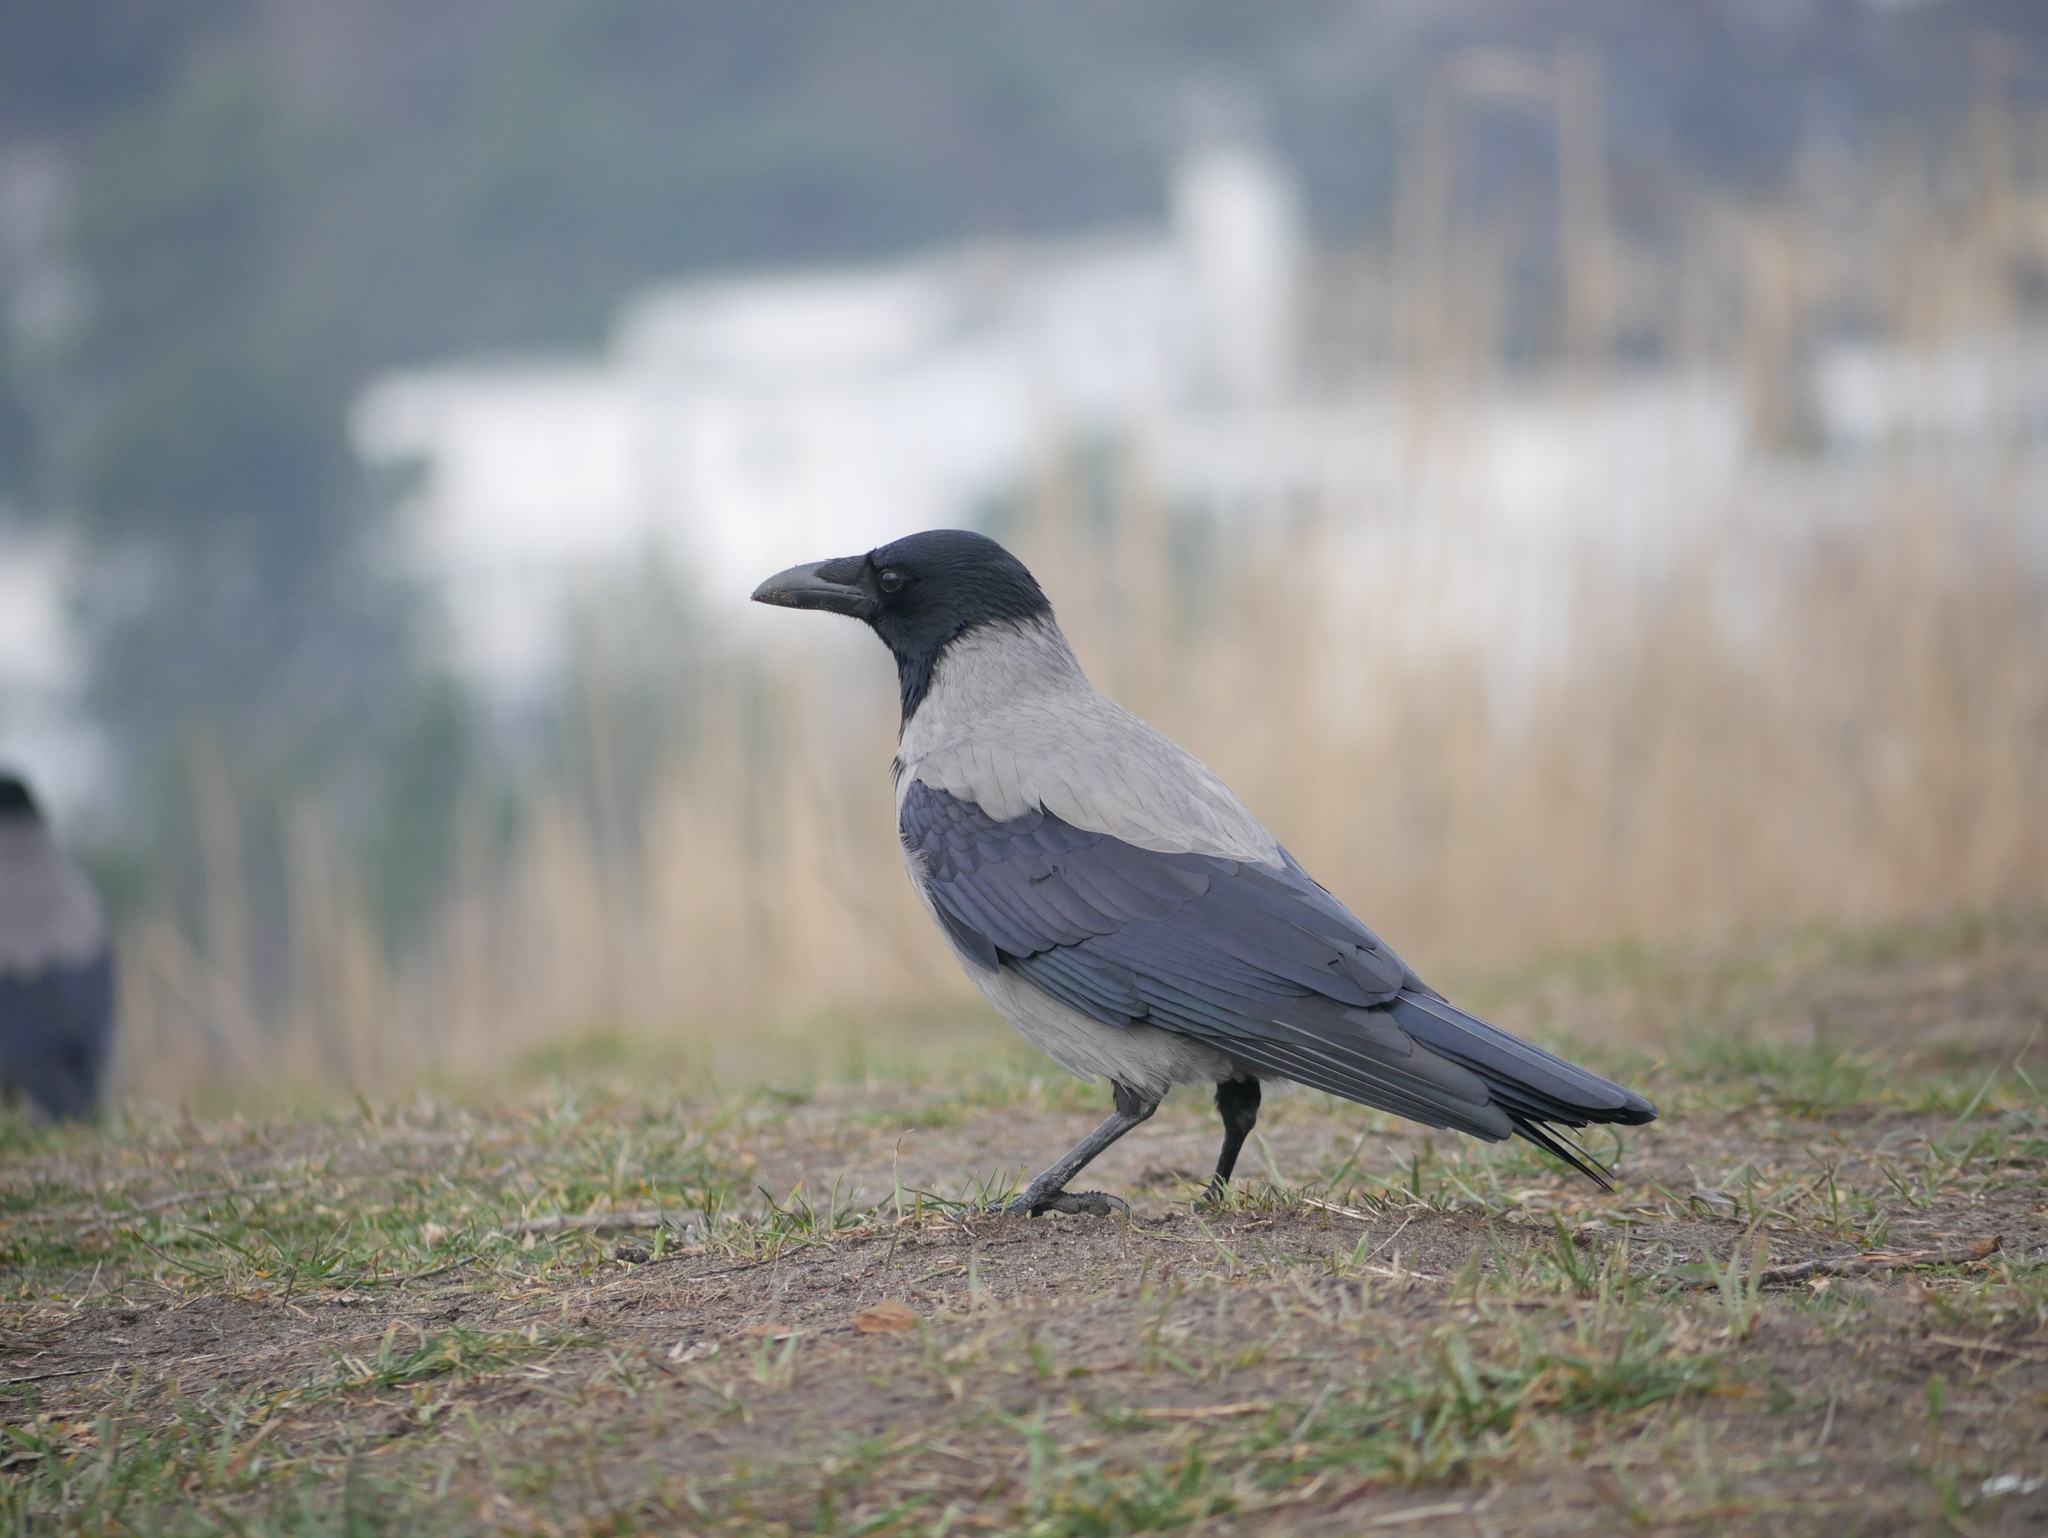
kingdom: Animalia
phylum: Chordata
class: Aves
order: Passeriformes
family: Corvidae
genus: Corvus
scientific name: Corvus cornix
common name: Hooded crow
